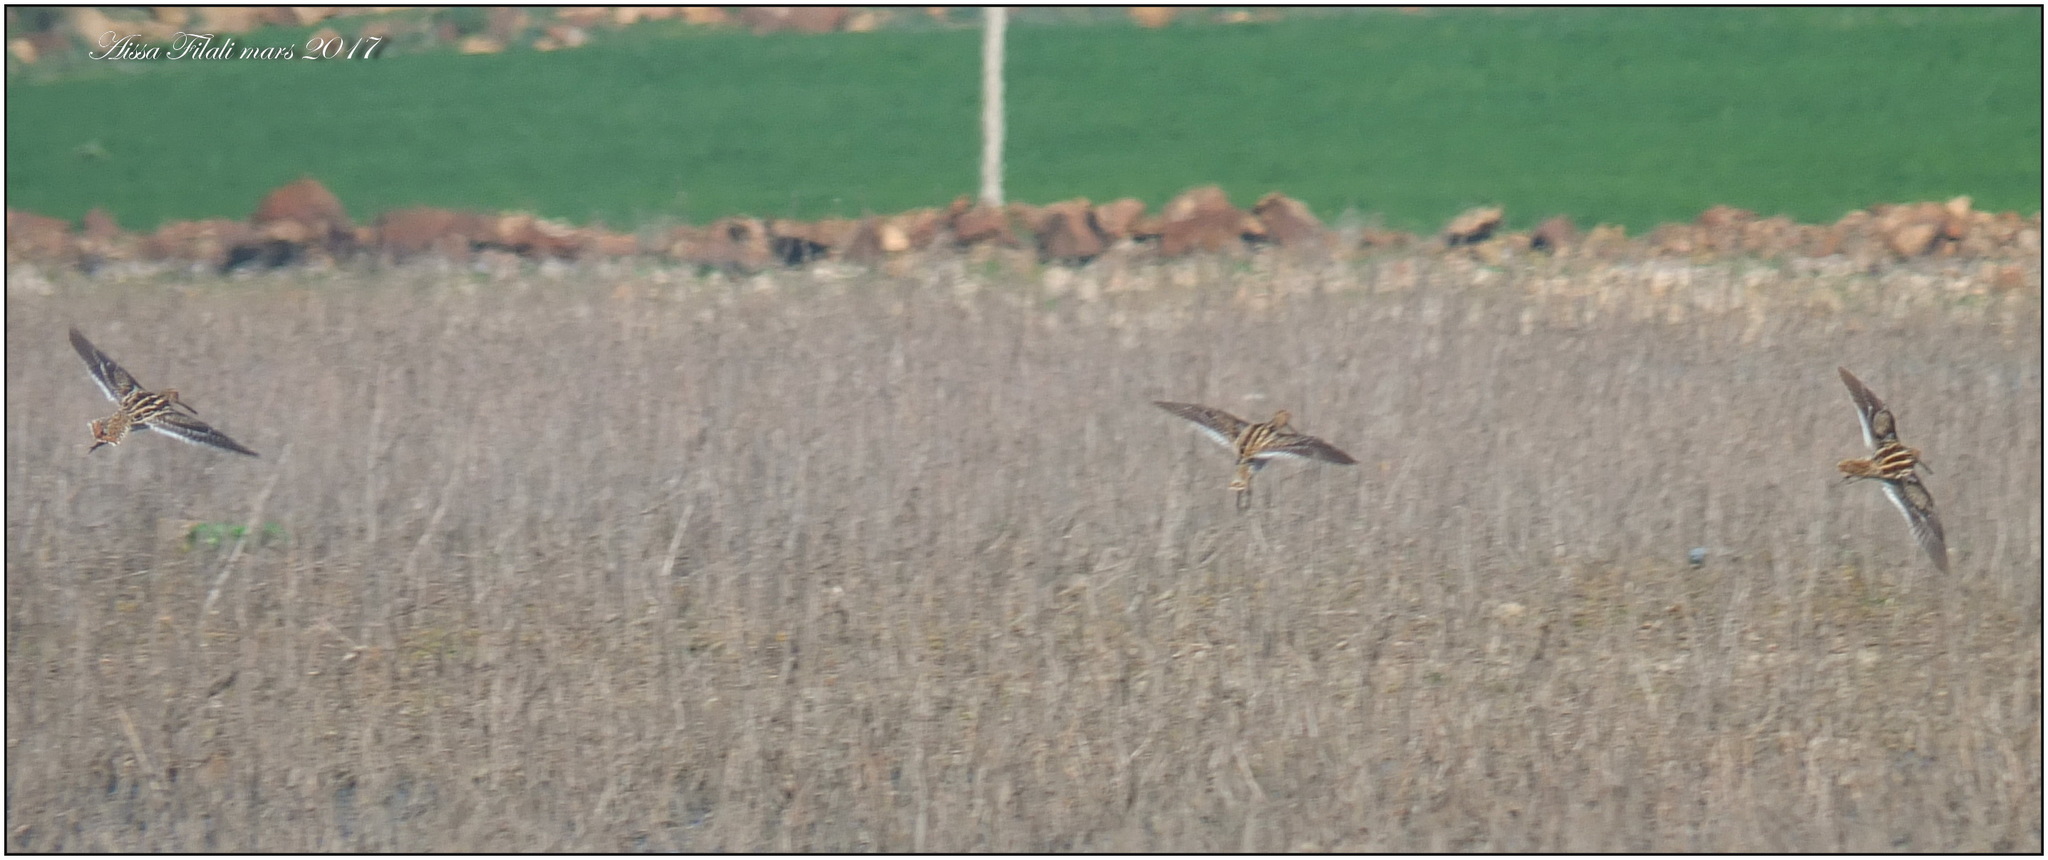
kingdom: Animalia
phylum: Chordata
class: Aves
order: Charadriiformes
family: Scolopacidae
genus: Gallinago
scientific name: Gallinago gallinago
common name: Common snipe
